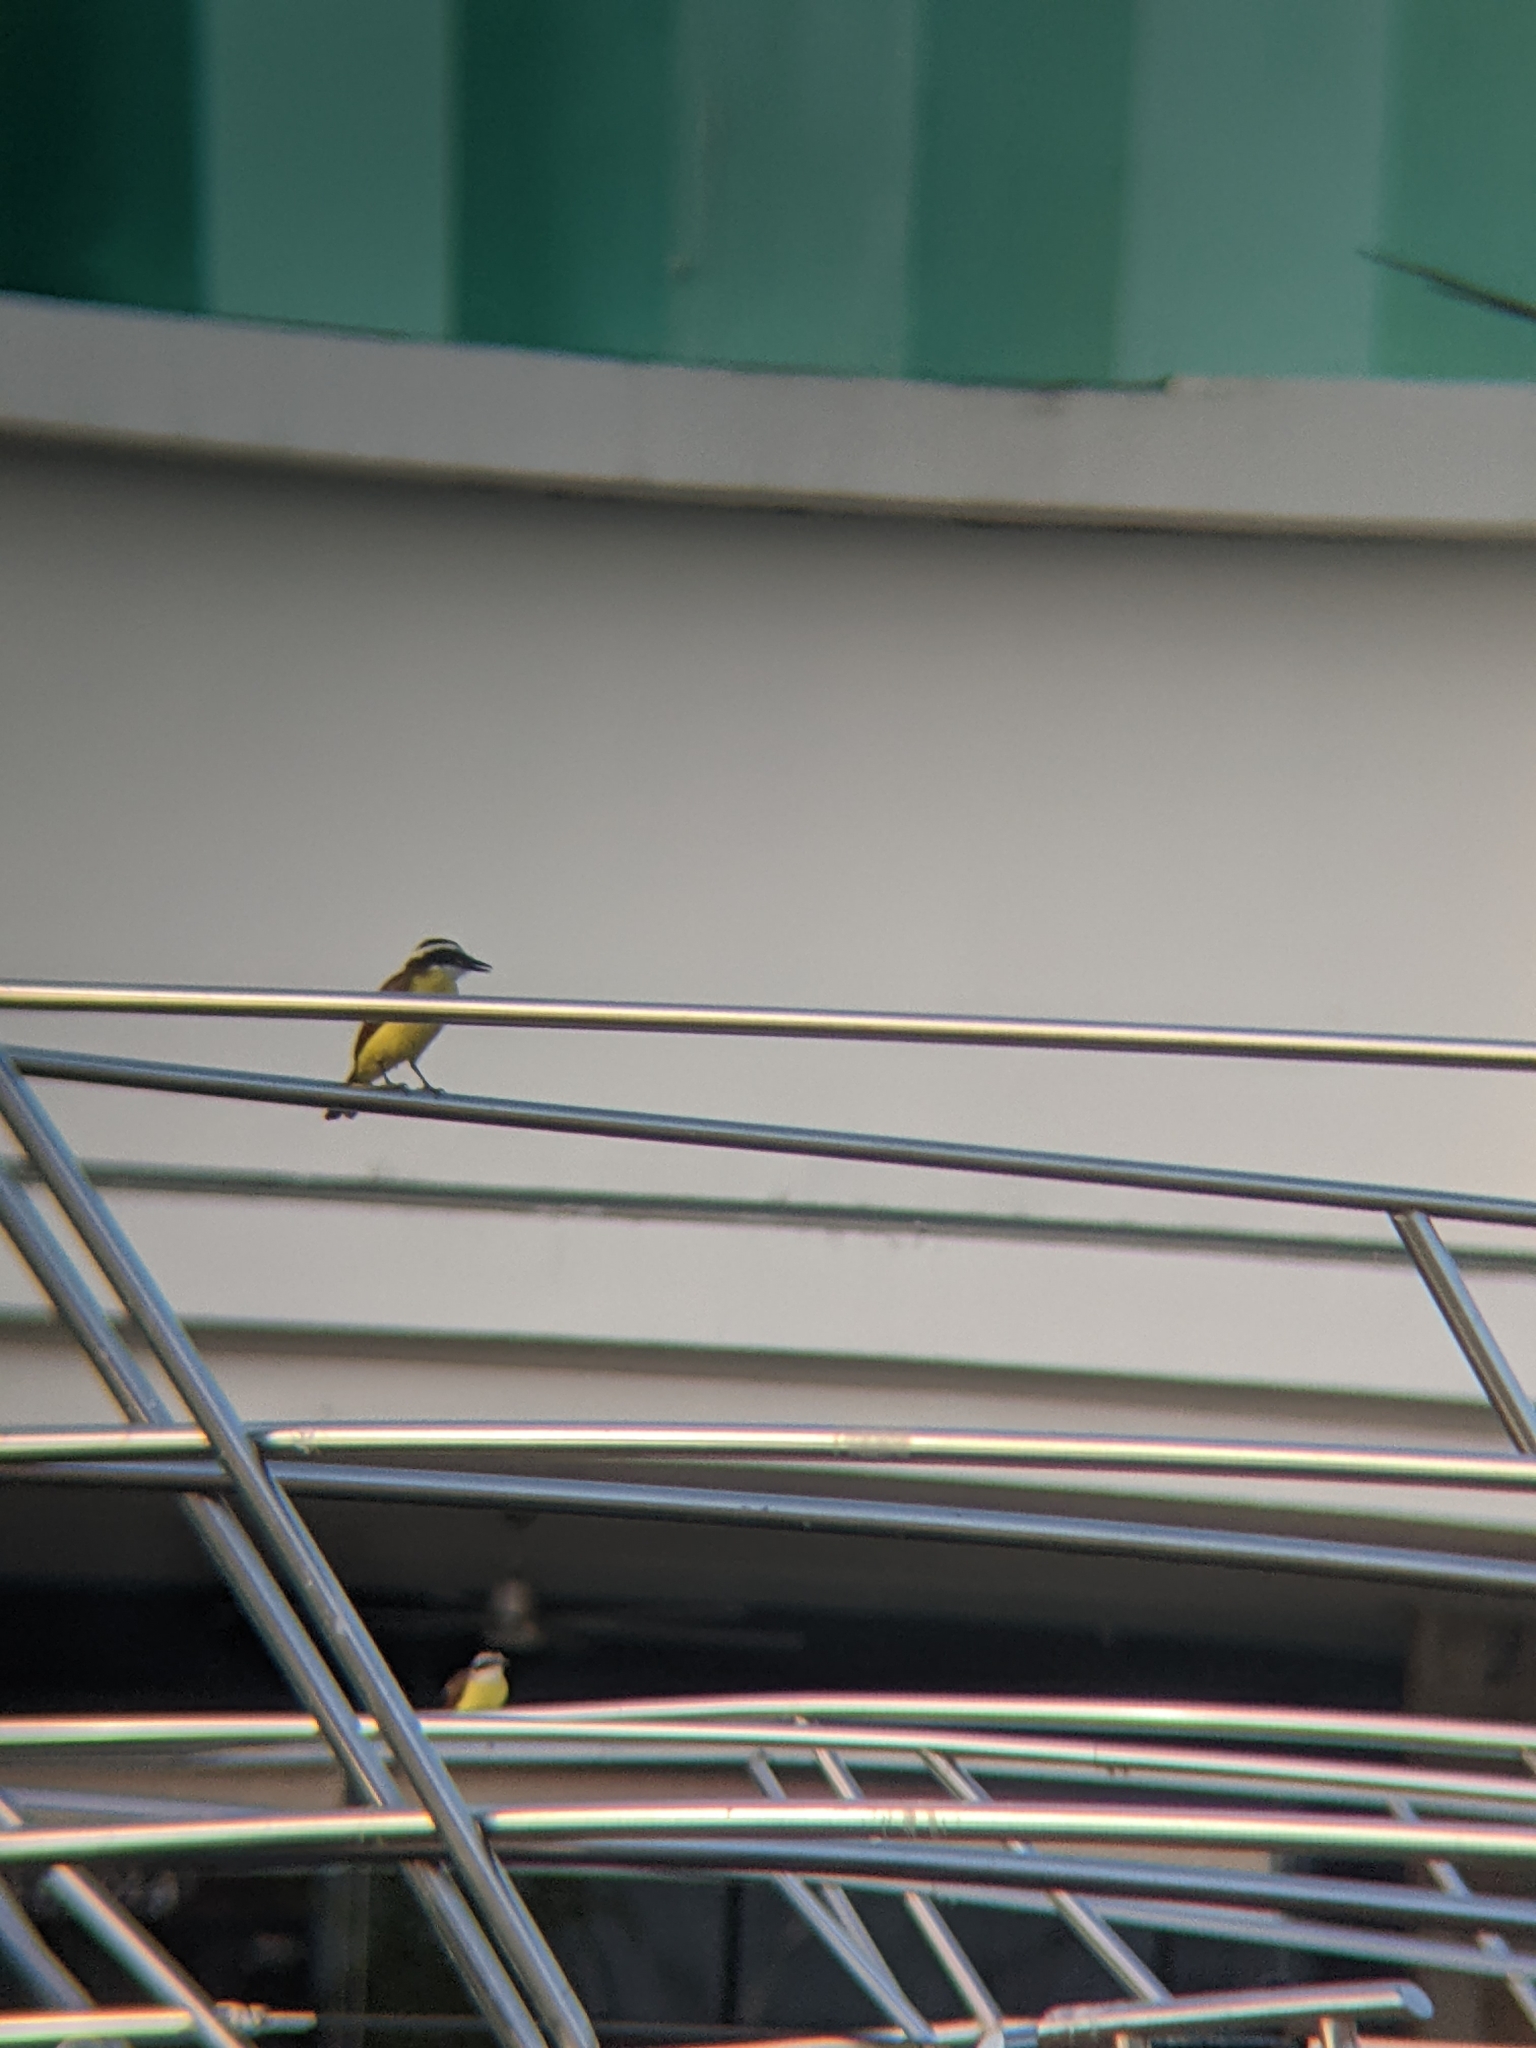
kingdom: Animalia
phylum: Chordata
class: Aves
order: Passeriformes
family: Tyrannidae
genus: Pitangus
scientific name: Pitangus sulphuratus
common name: Great kiskadee
